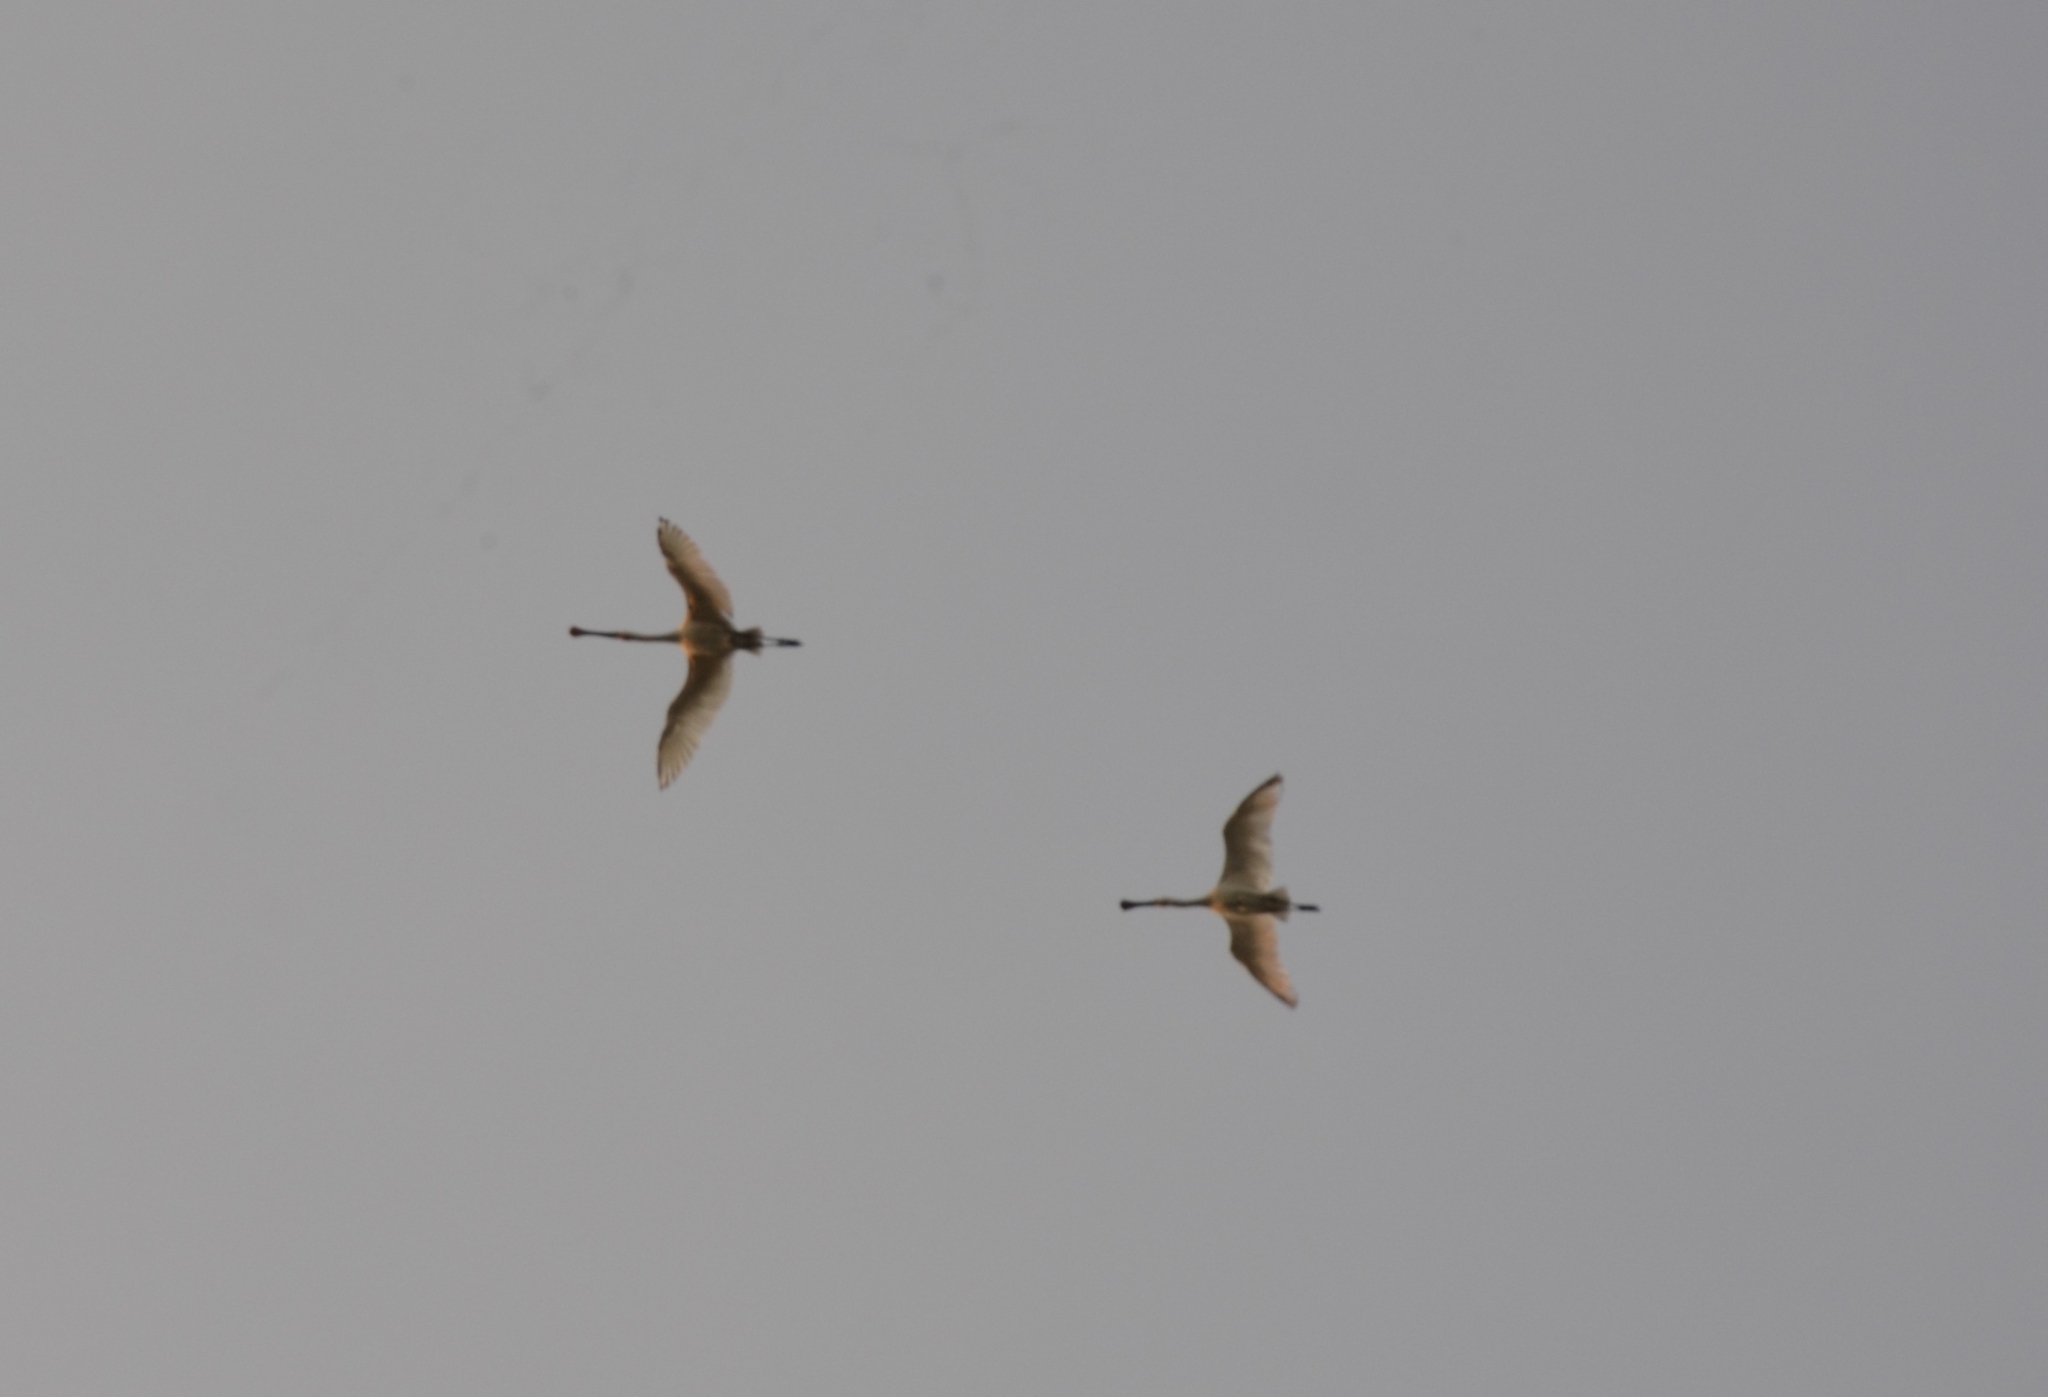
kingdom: Animalia
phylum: Chordata
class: Aves
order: Pelecaniformes
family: Threskiornithidae
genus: Platalea
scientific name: Platalea leucorodia
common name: Eurasian spoonbill
